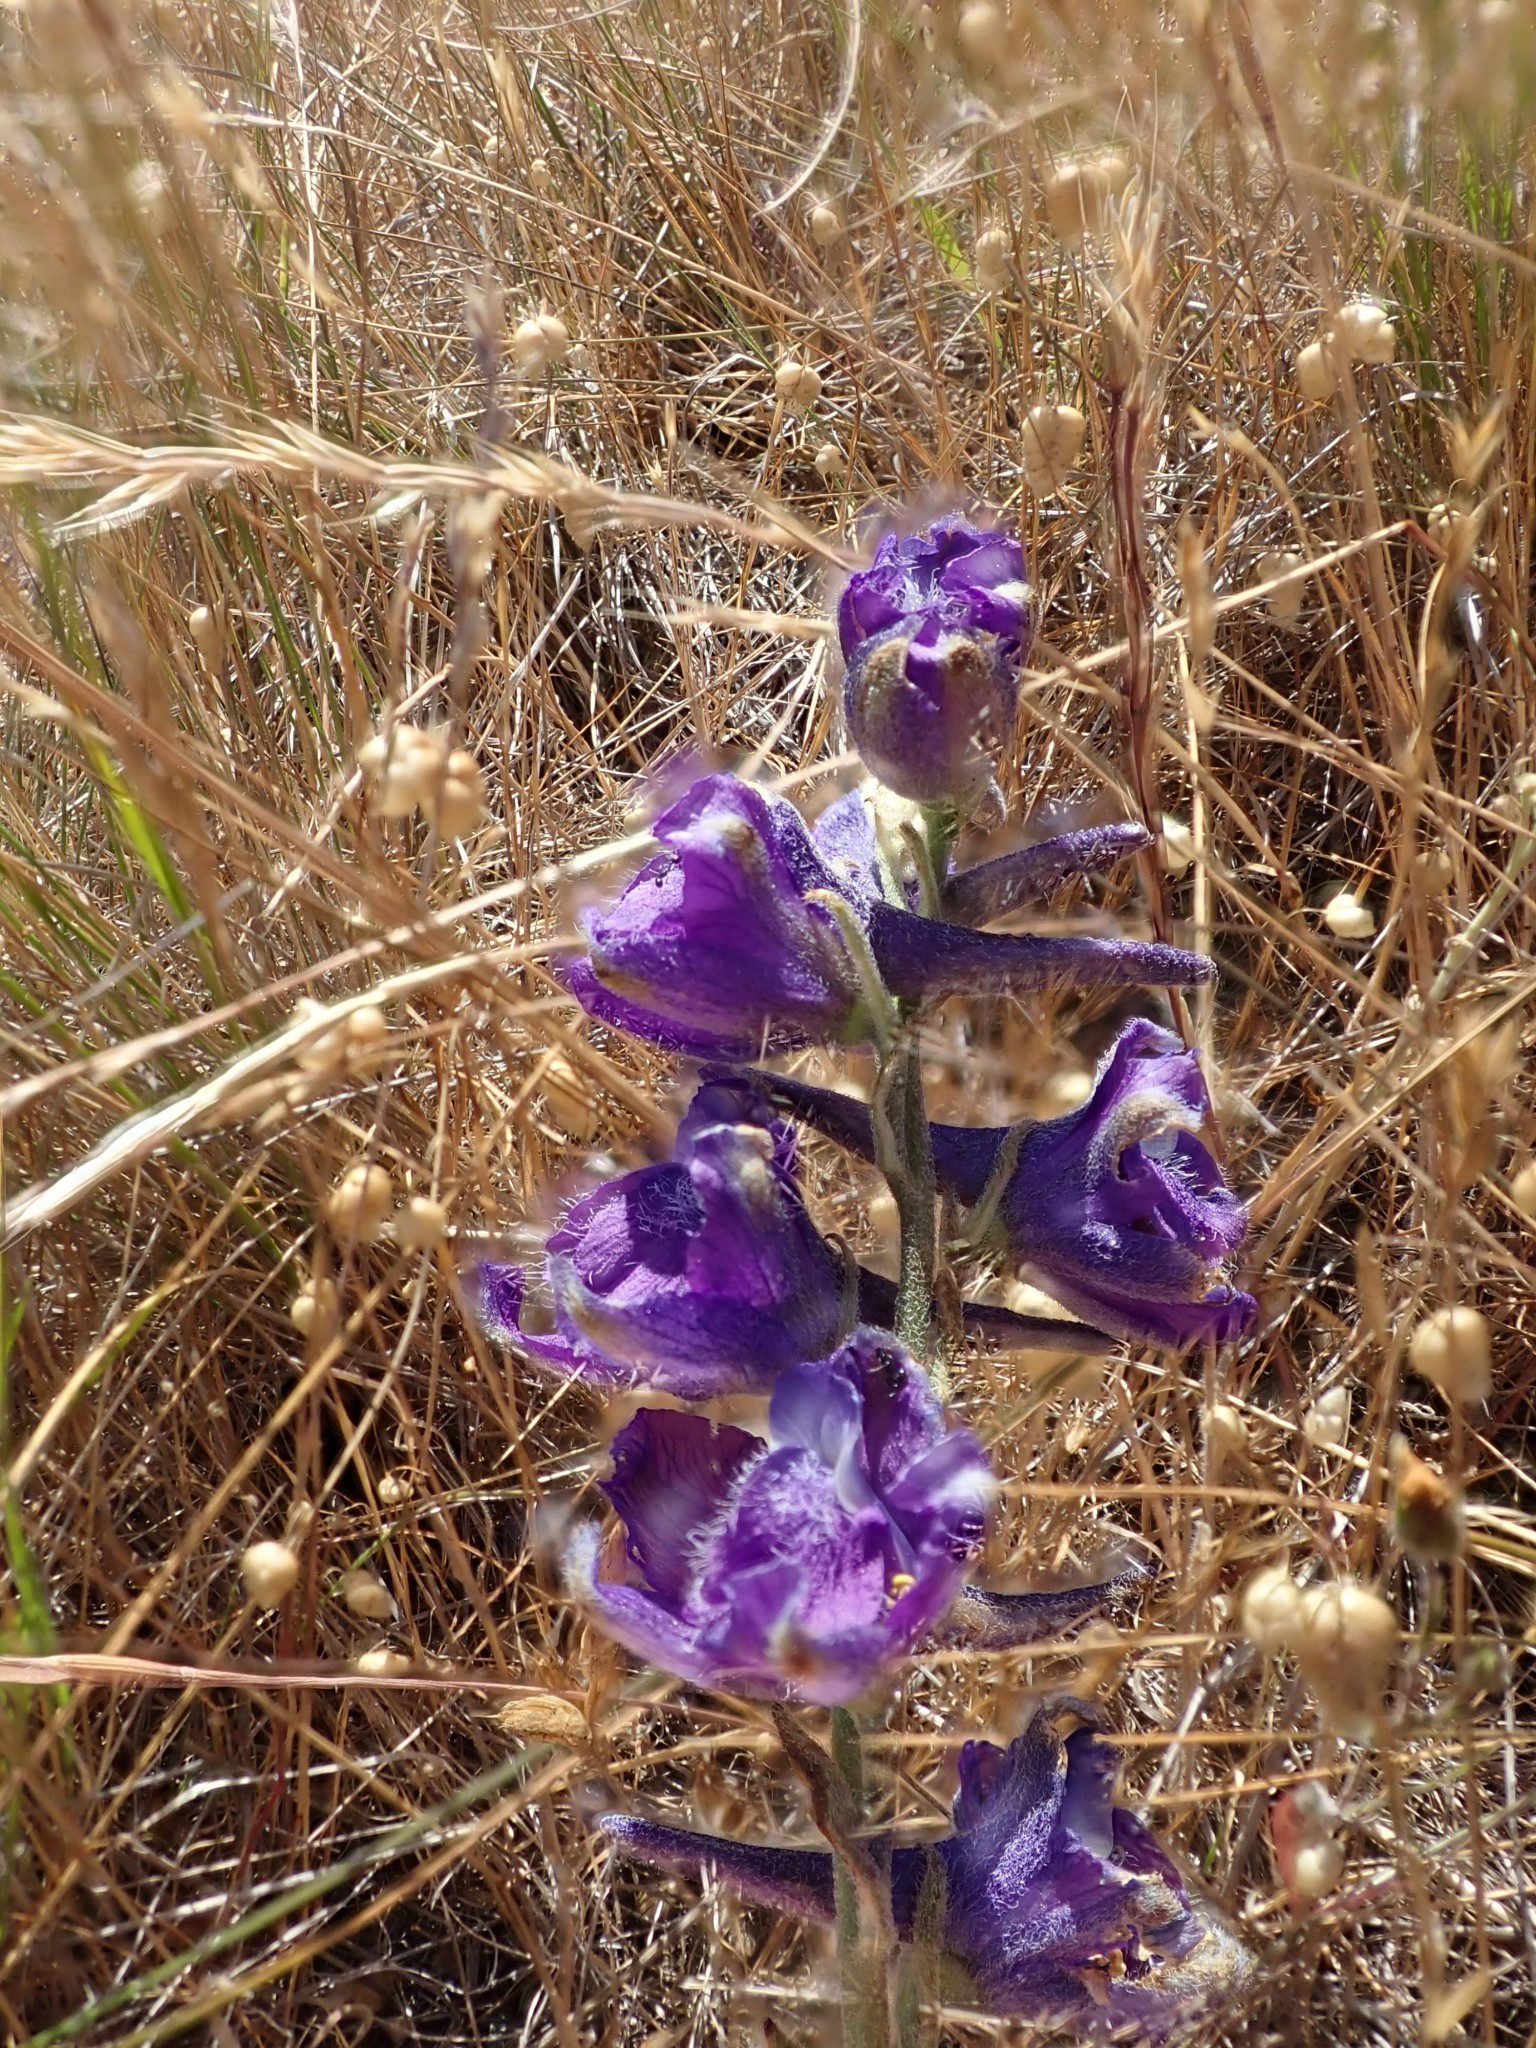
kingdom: Plantae
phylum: Tracheophyta
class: Magnoliopsida
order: Ranunculales
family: Ranunculaceae
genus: Delphinium
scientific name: Delphinium hesperium
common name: Western larkspur
